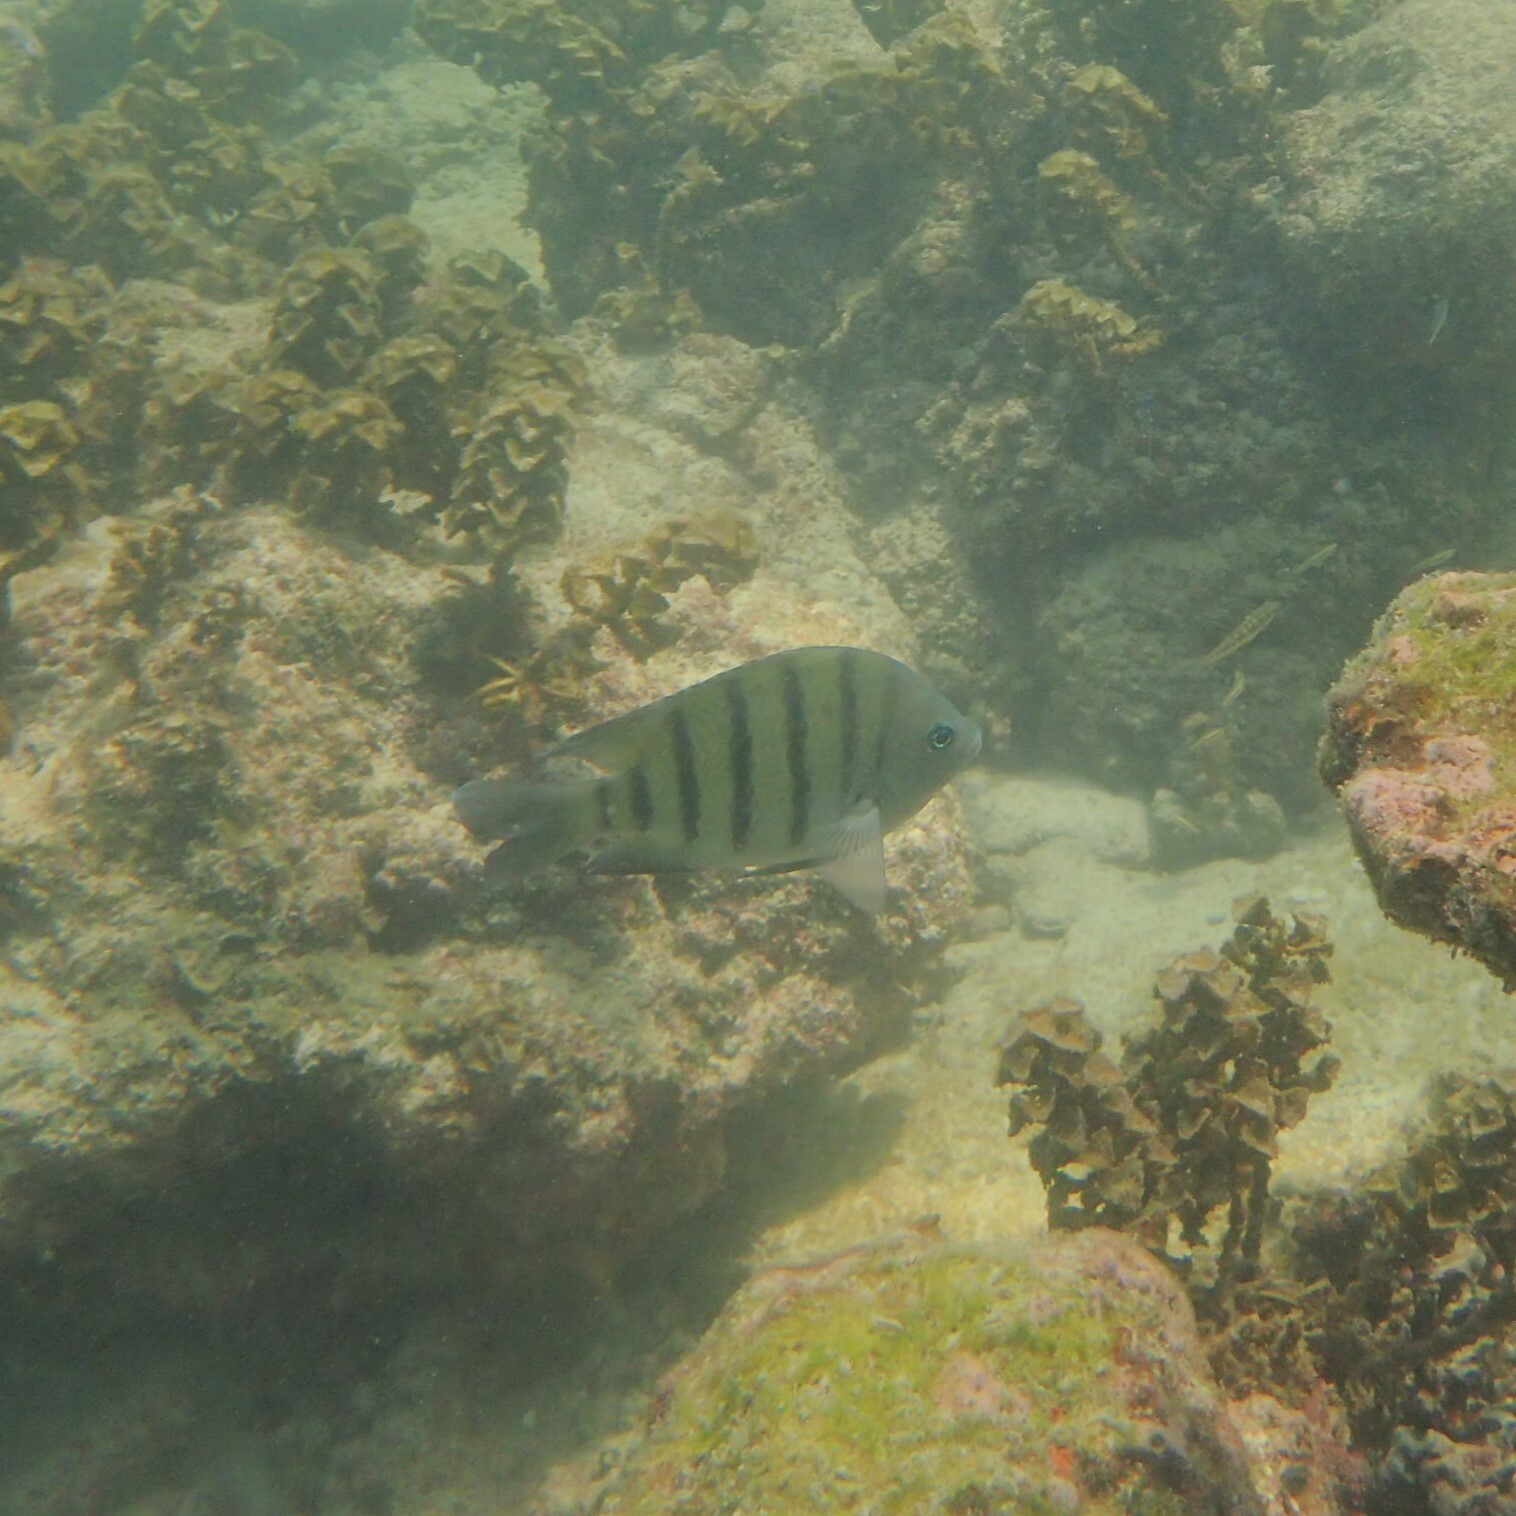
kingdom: Animalia
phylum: Chordata
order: Perciformes
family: Pomacentridae
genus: Abudefduf
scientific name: Abudefduf bengalensis
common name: Bengal sergeant
